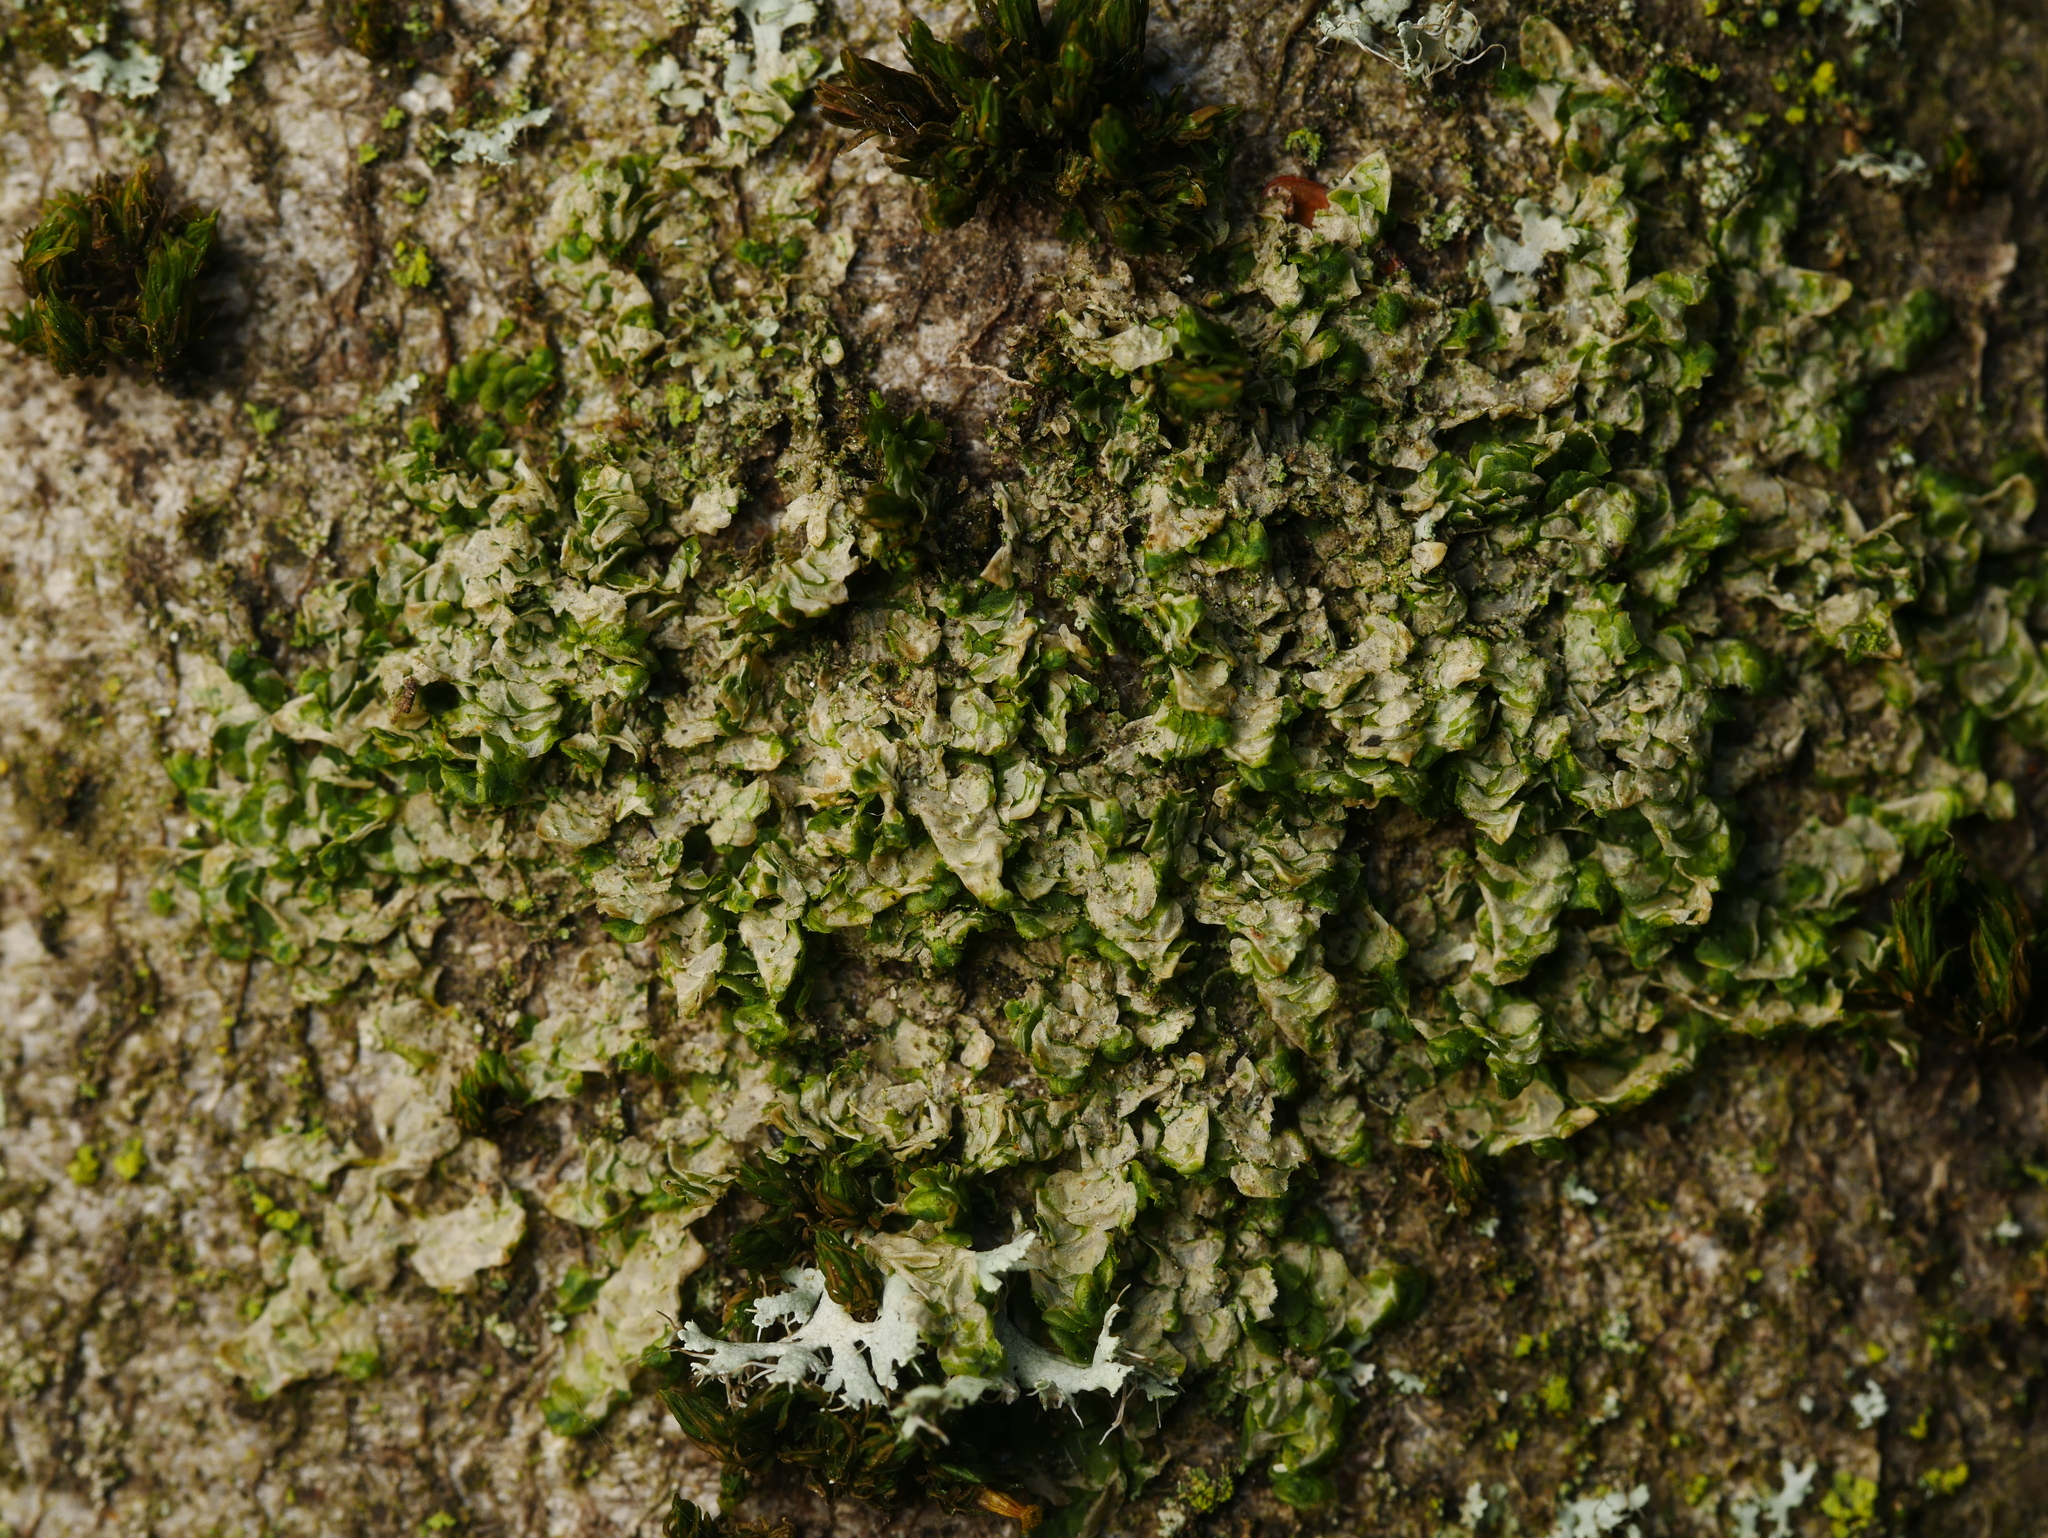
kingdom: Plantae
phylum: Marchantiophyta
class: Jungermanniopsida
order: Porellales
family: Radulaceae
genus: Radula
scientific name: Radula complanata
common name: Flat-leaved scalewort
